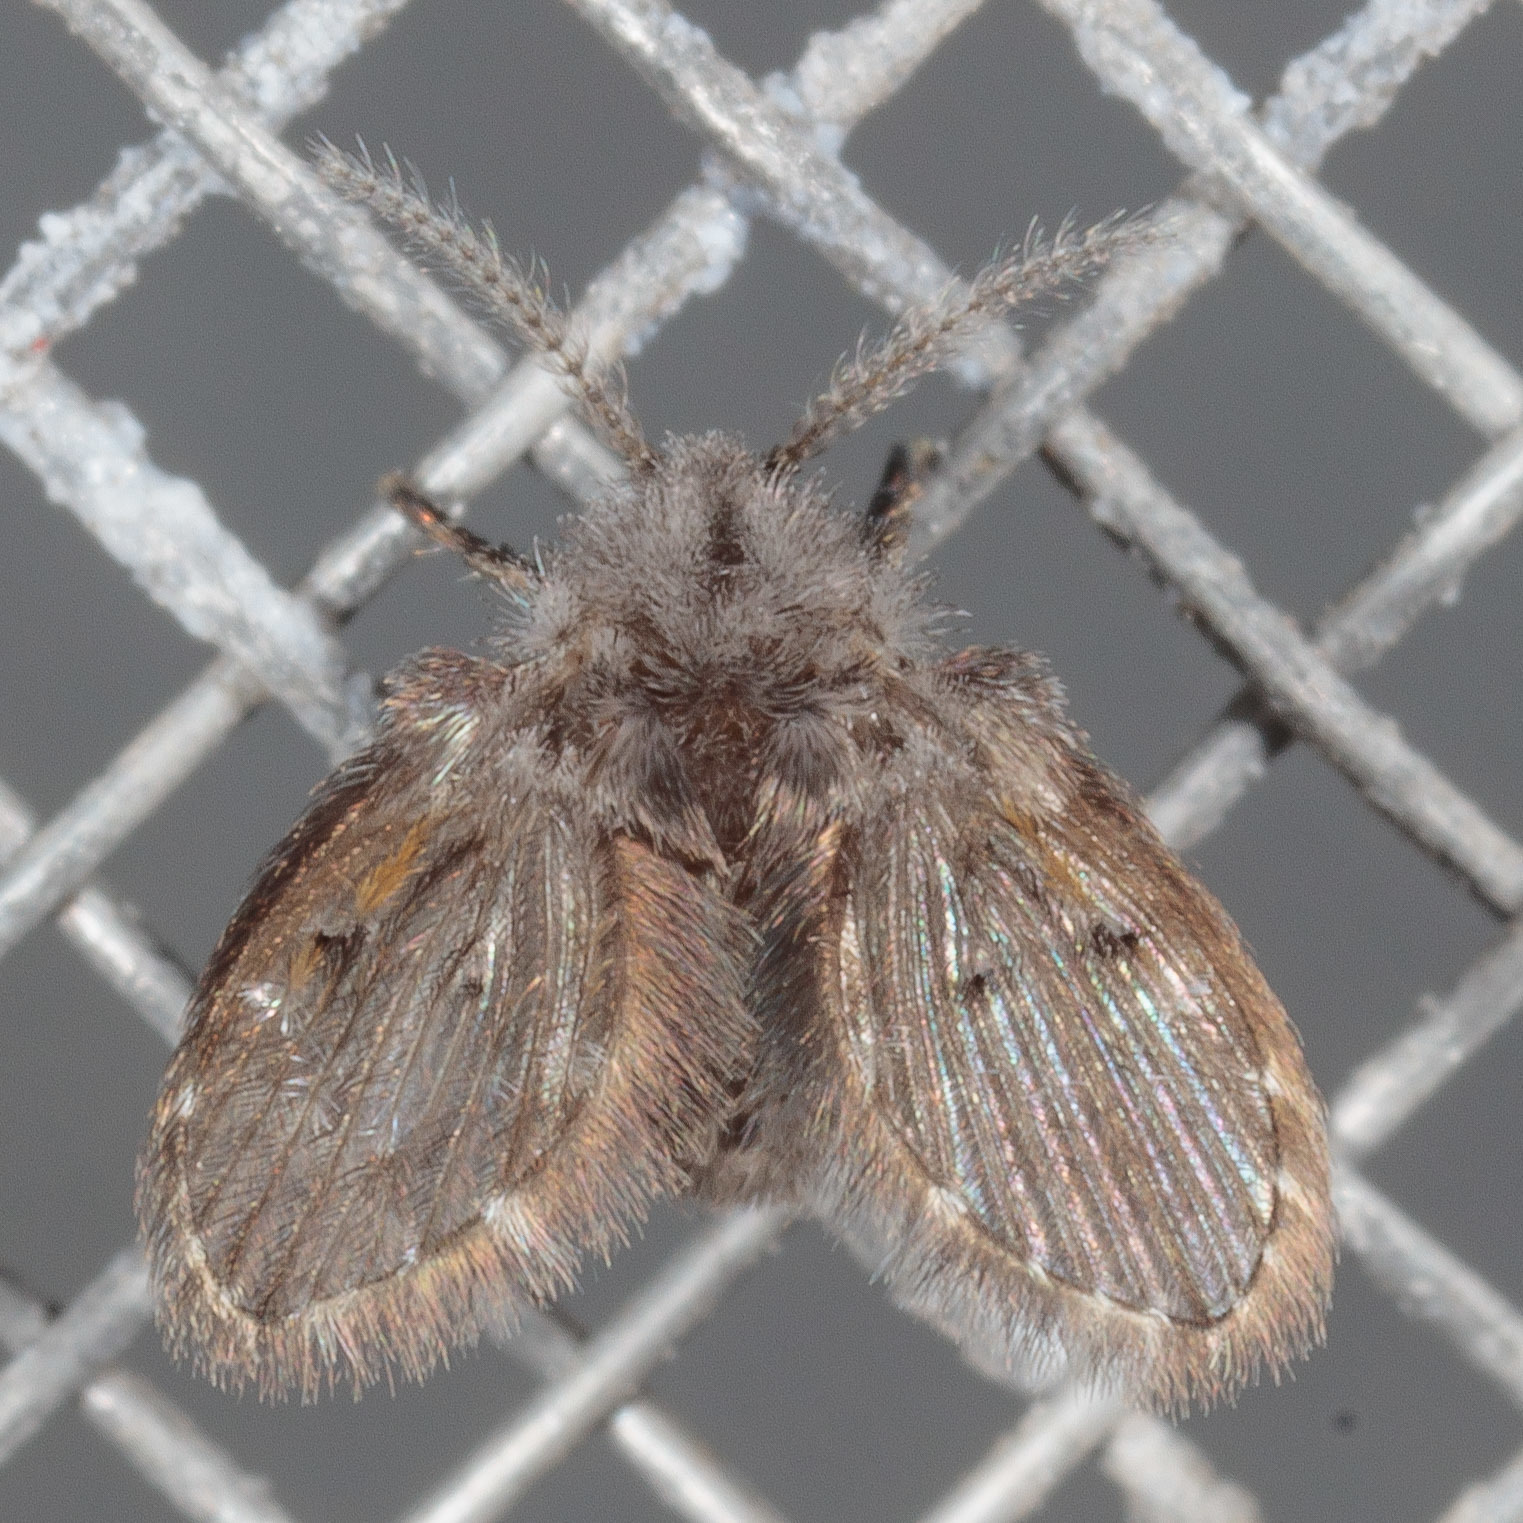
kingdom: Animalia
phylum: Arthropoda
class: Insecta
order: Diptera
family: Psychodidae
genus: Clogmia
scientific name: Clogmia albipunctatus
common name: White-spotted moth fly
